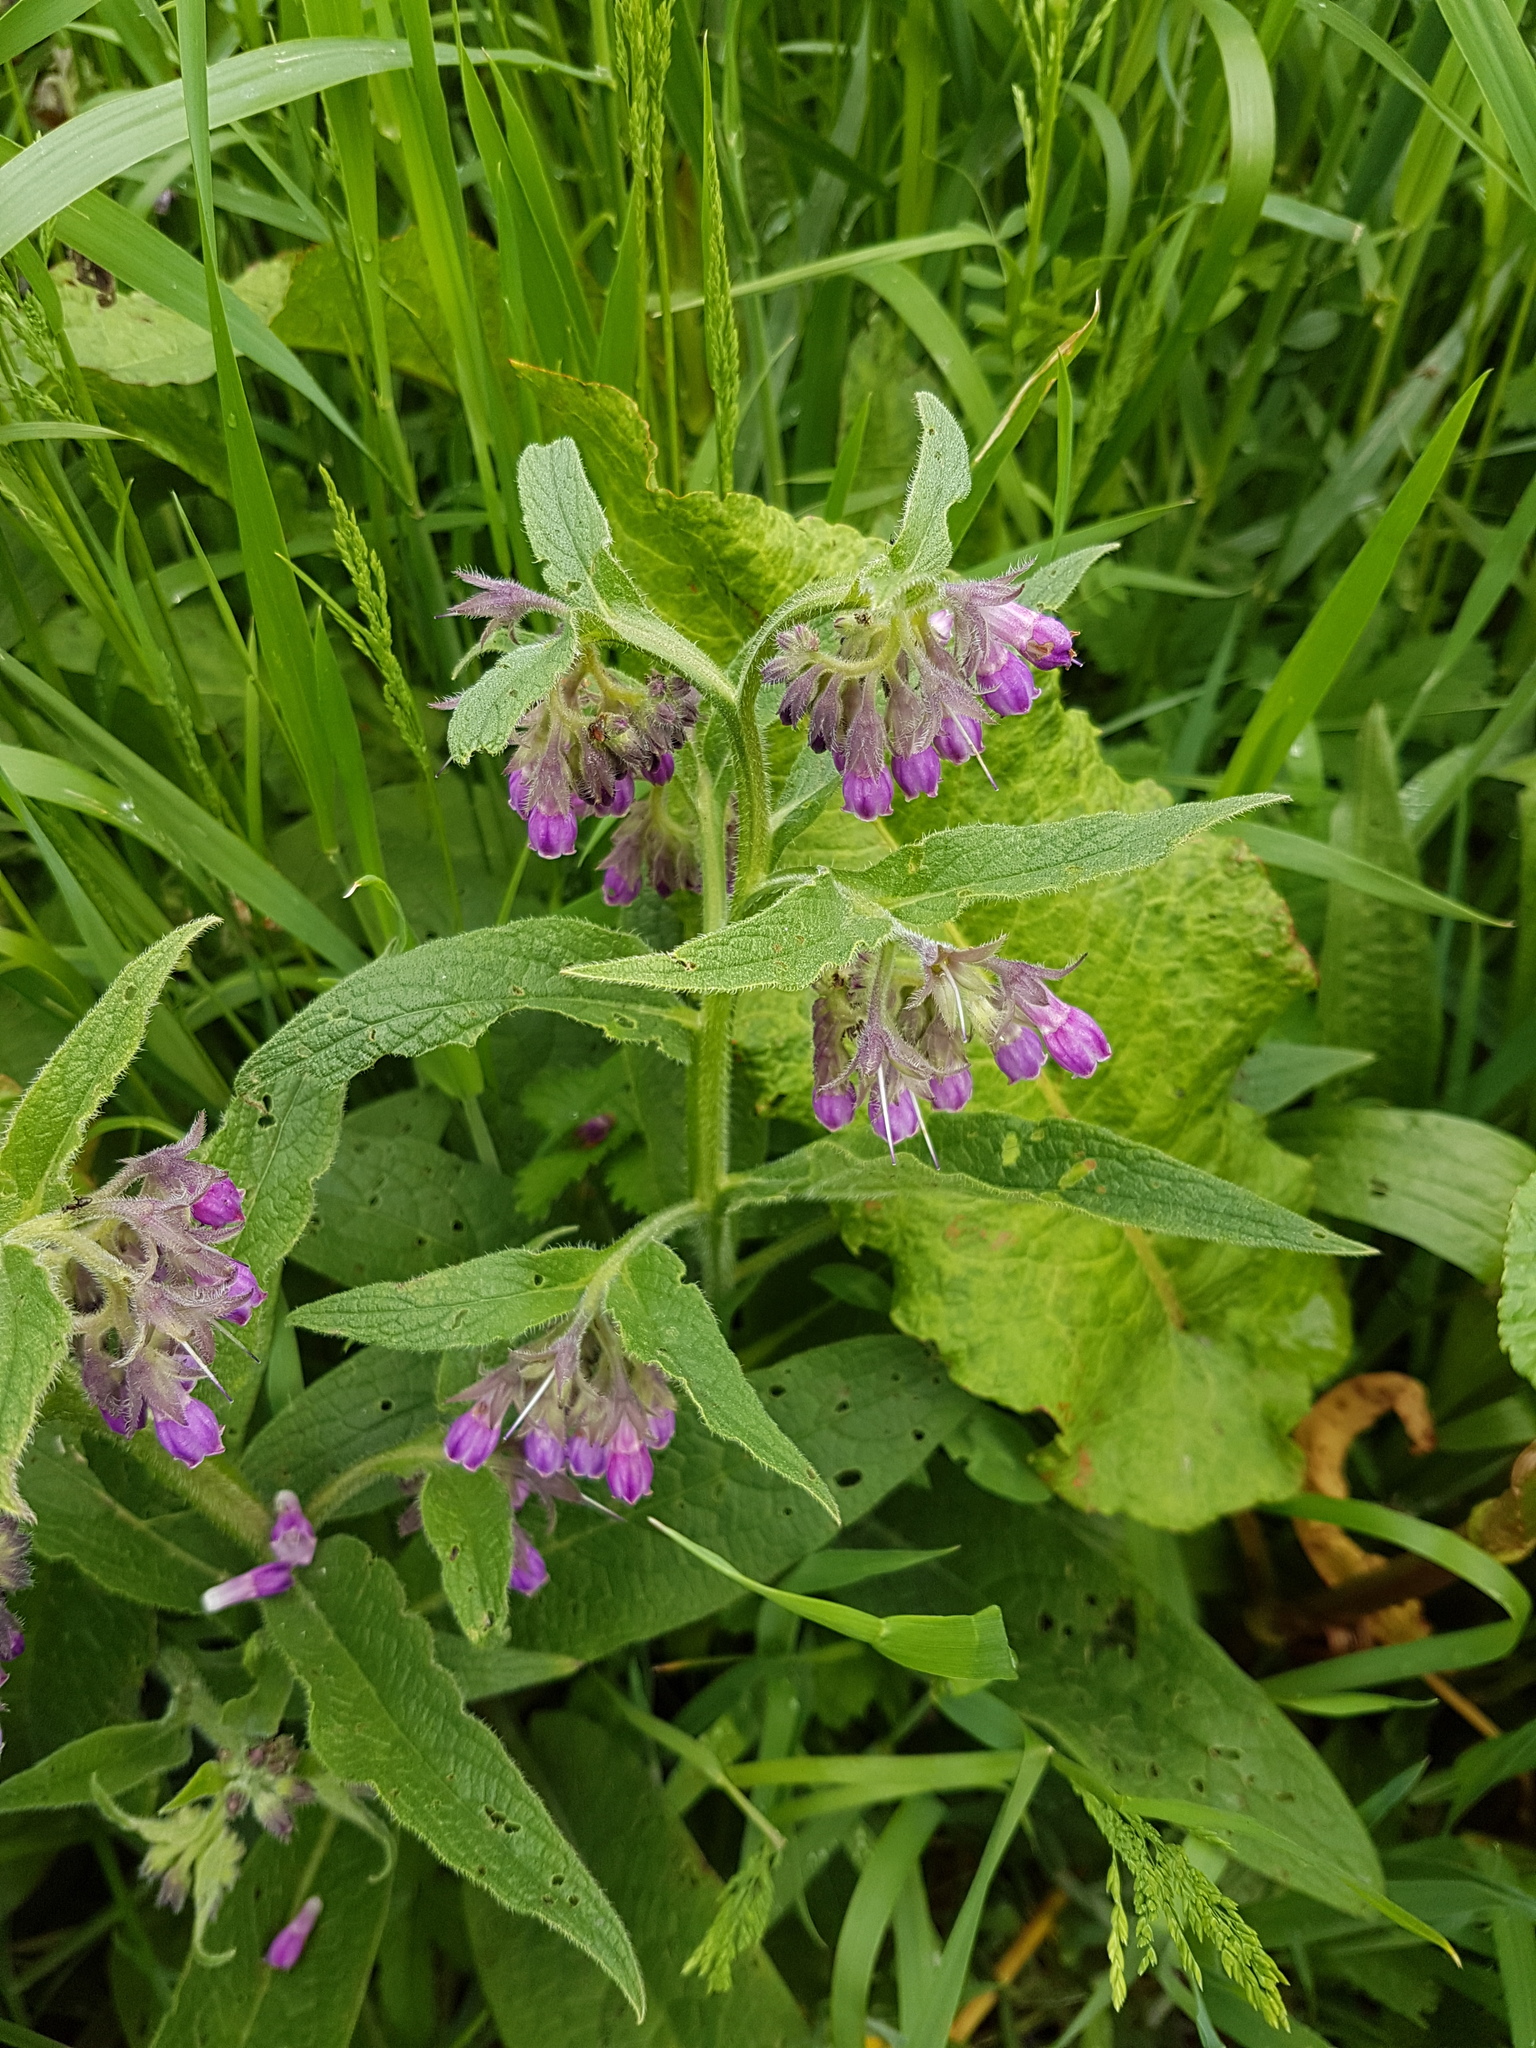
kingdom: Plantae
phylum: Tracheophyta
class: Magnoliopsida
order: Boraginales
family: Boraginaceae
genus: Symphytum
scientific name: Symphytum officinale
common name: Common comfrey
